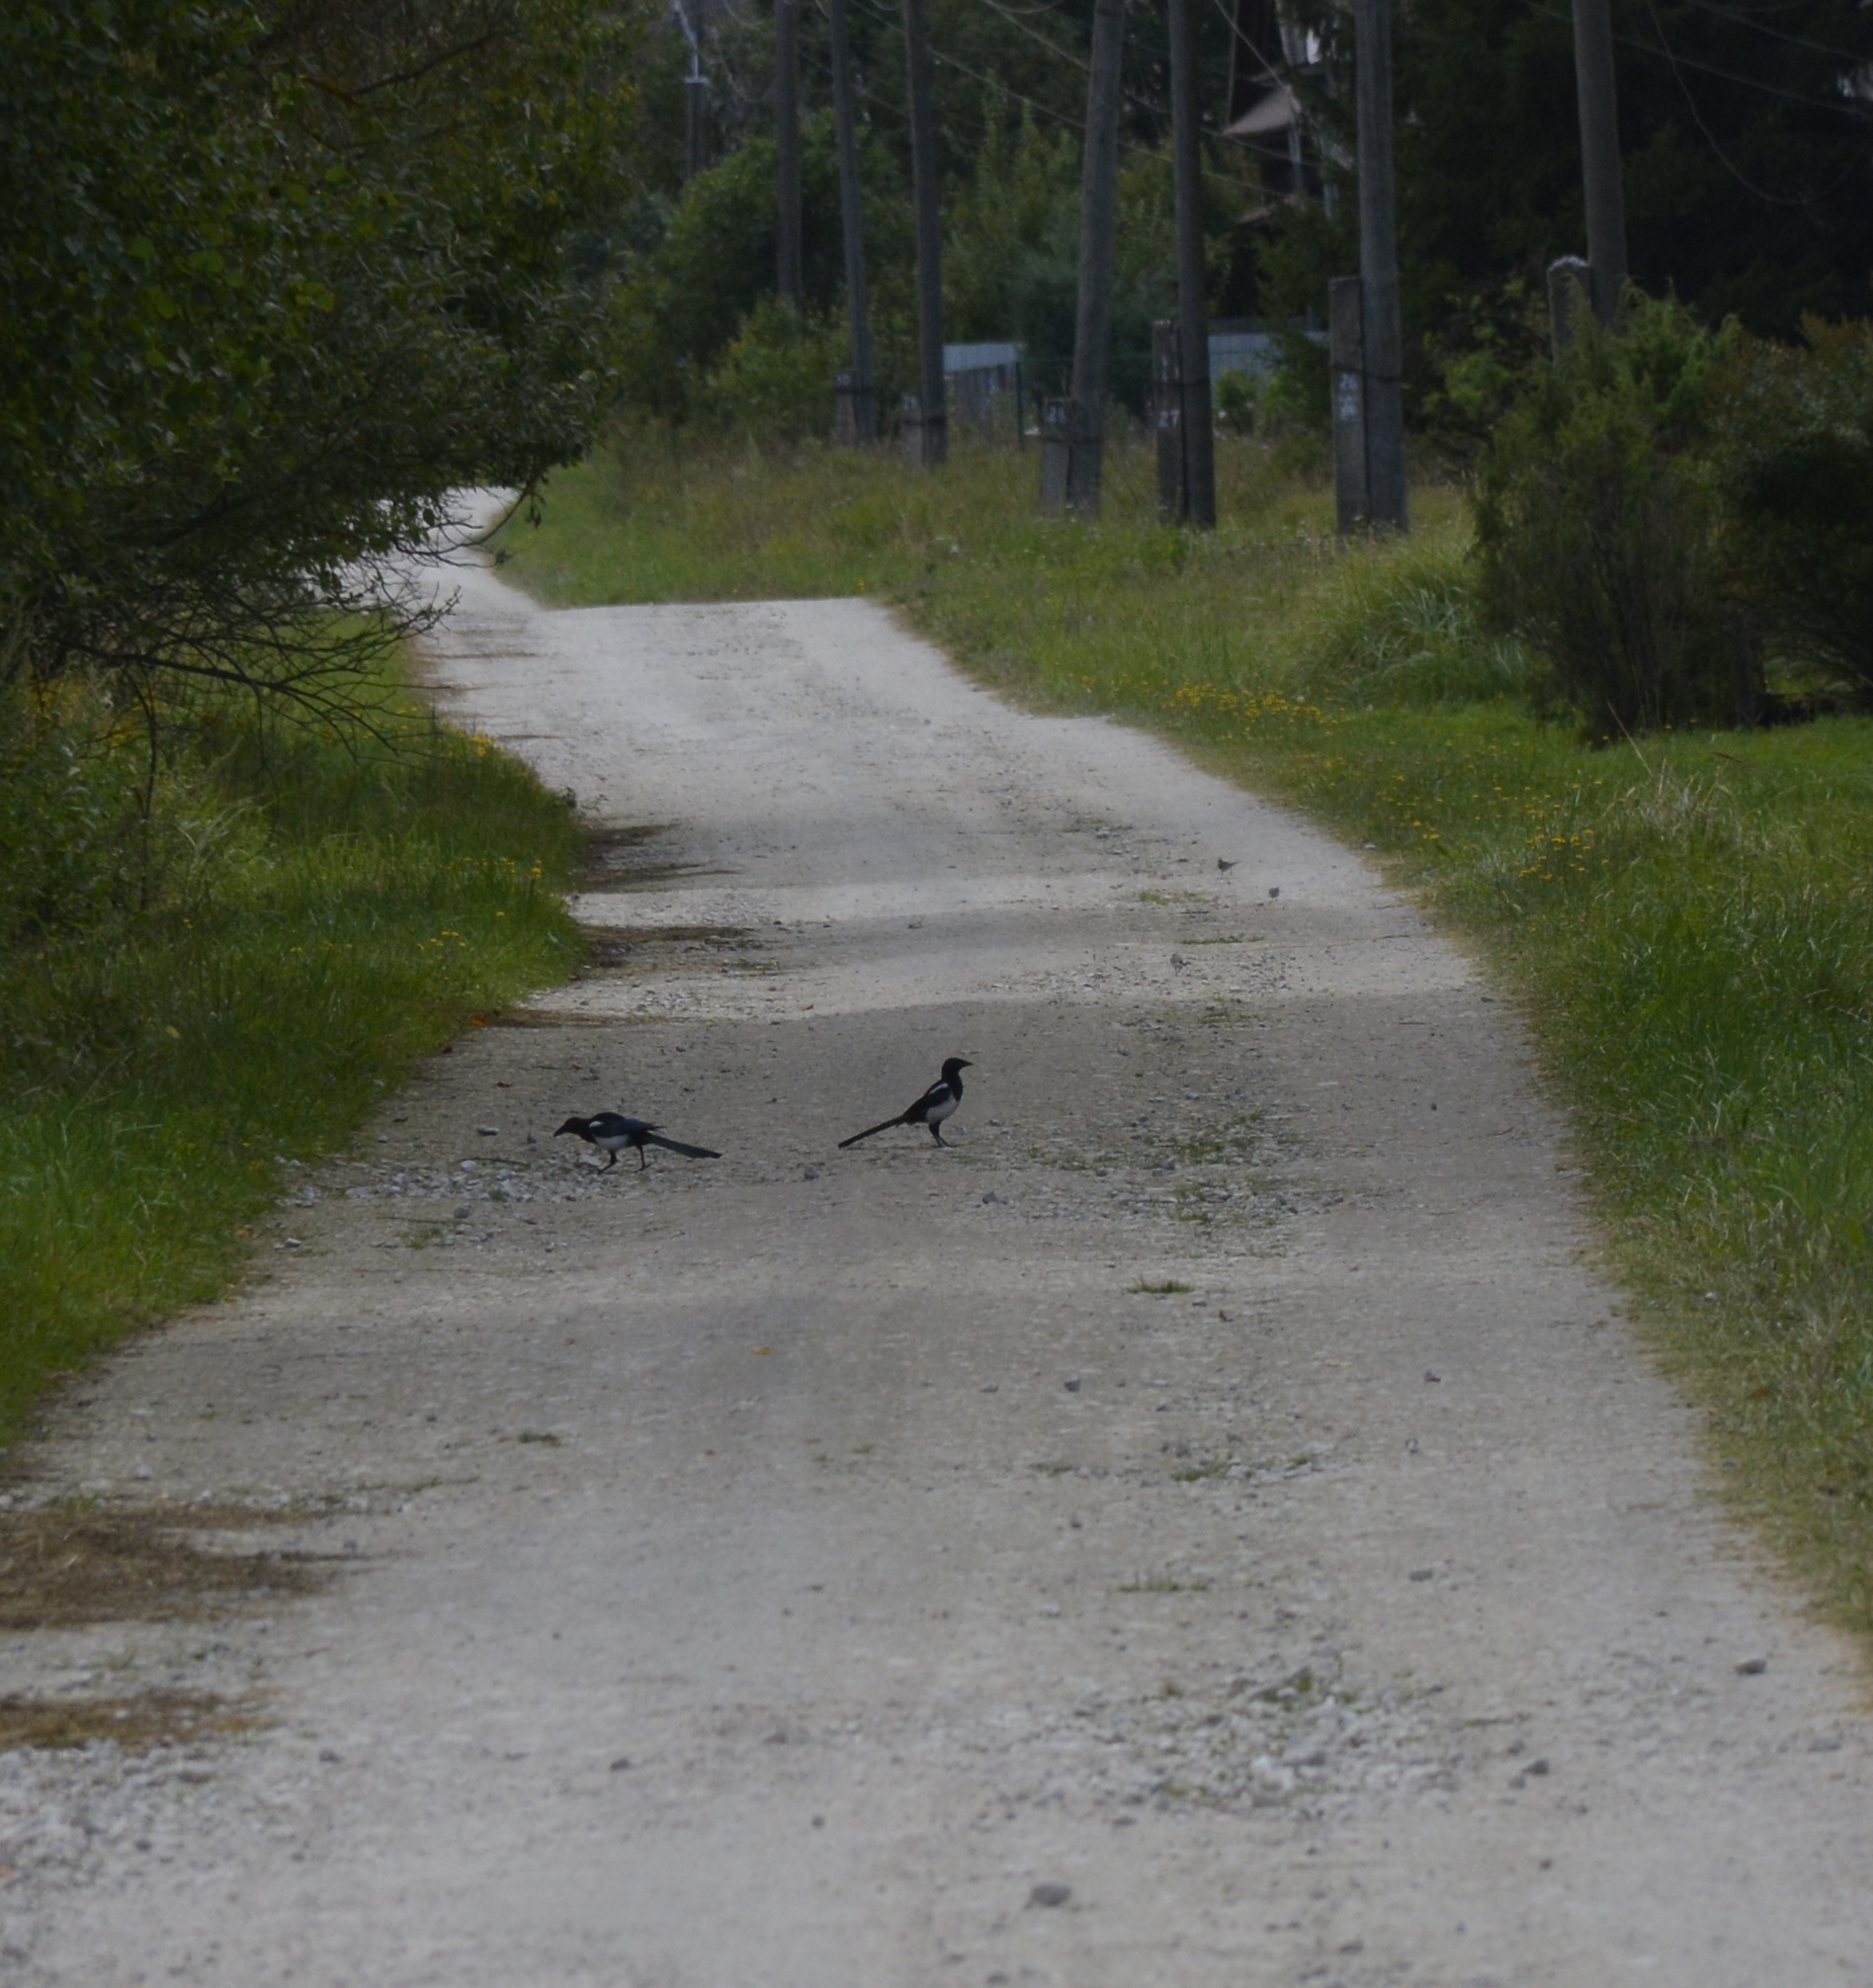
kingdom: Animalia
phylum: Chordata
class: Aves
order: Passeriformes
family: Corvidae
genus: Pica
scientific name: Pica pica
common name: Eurasian magpie
